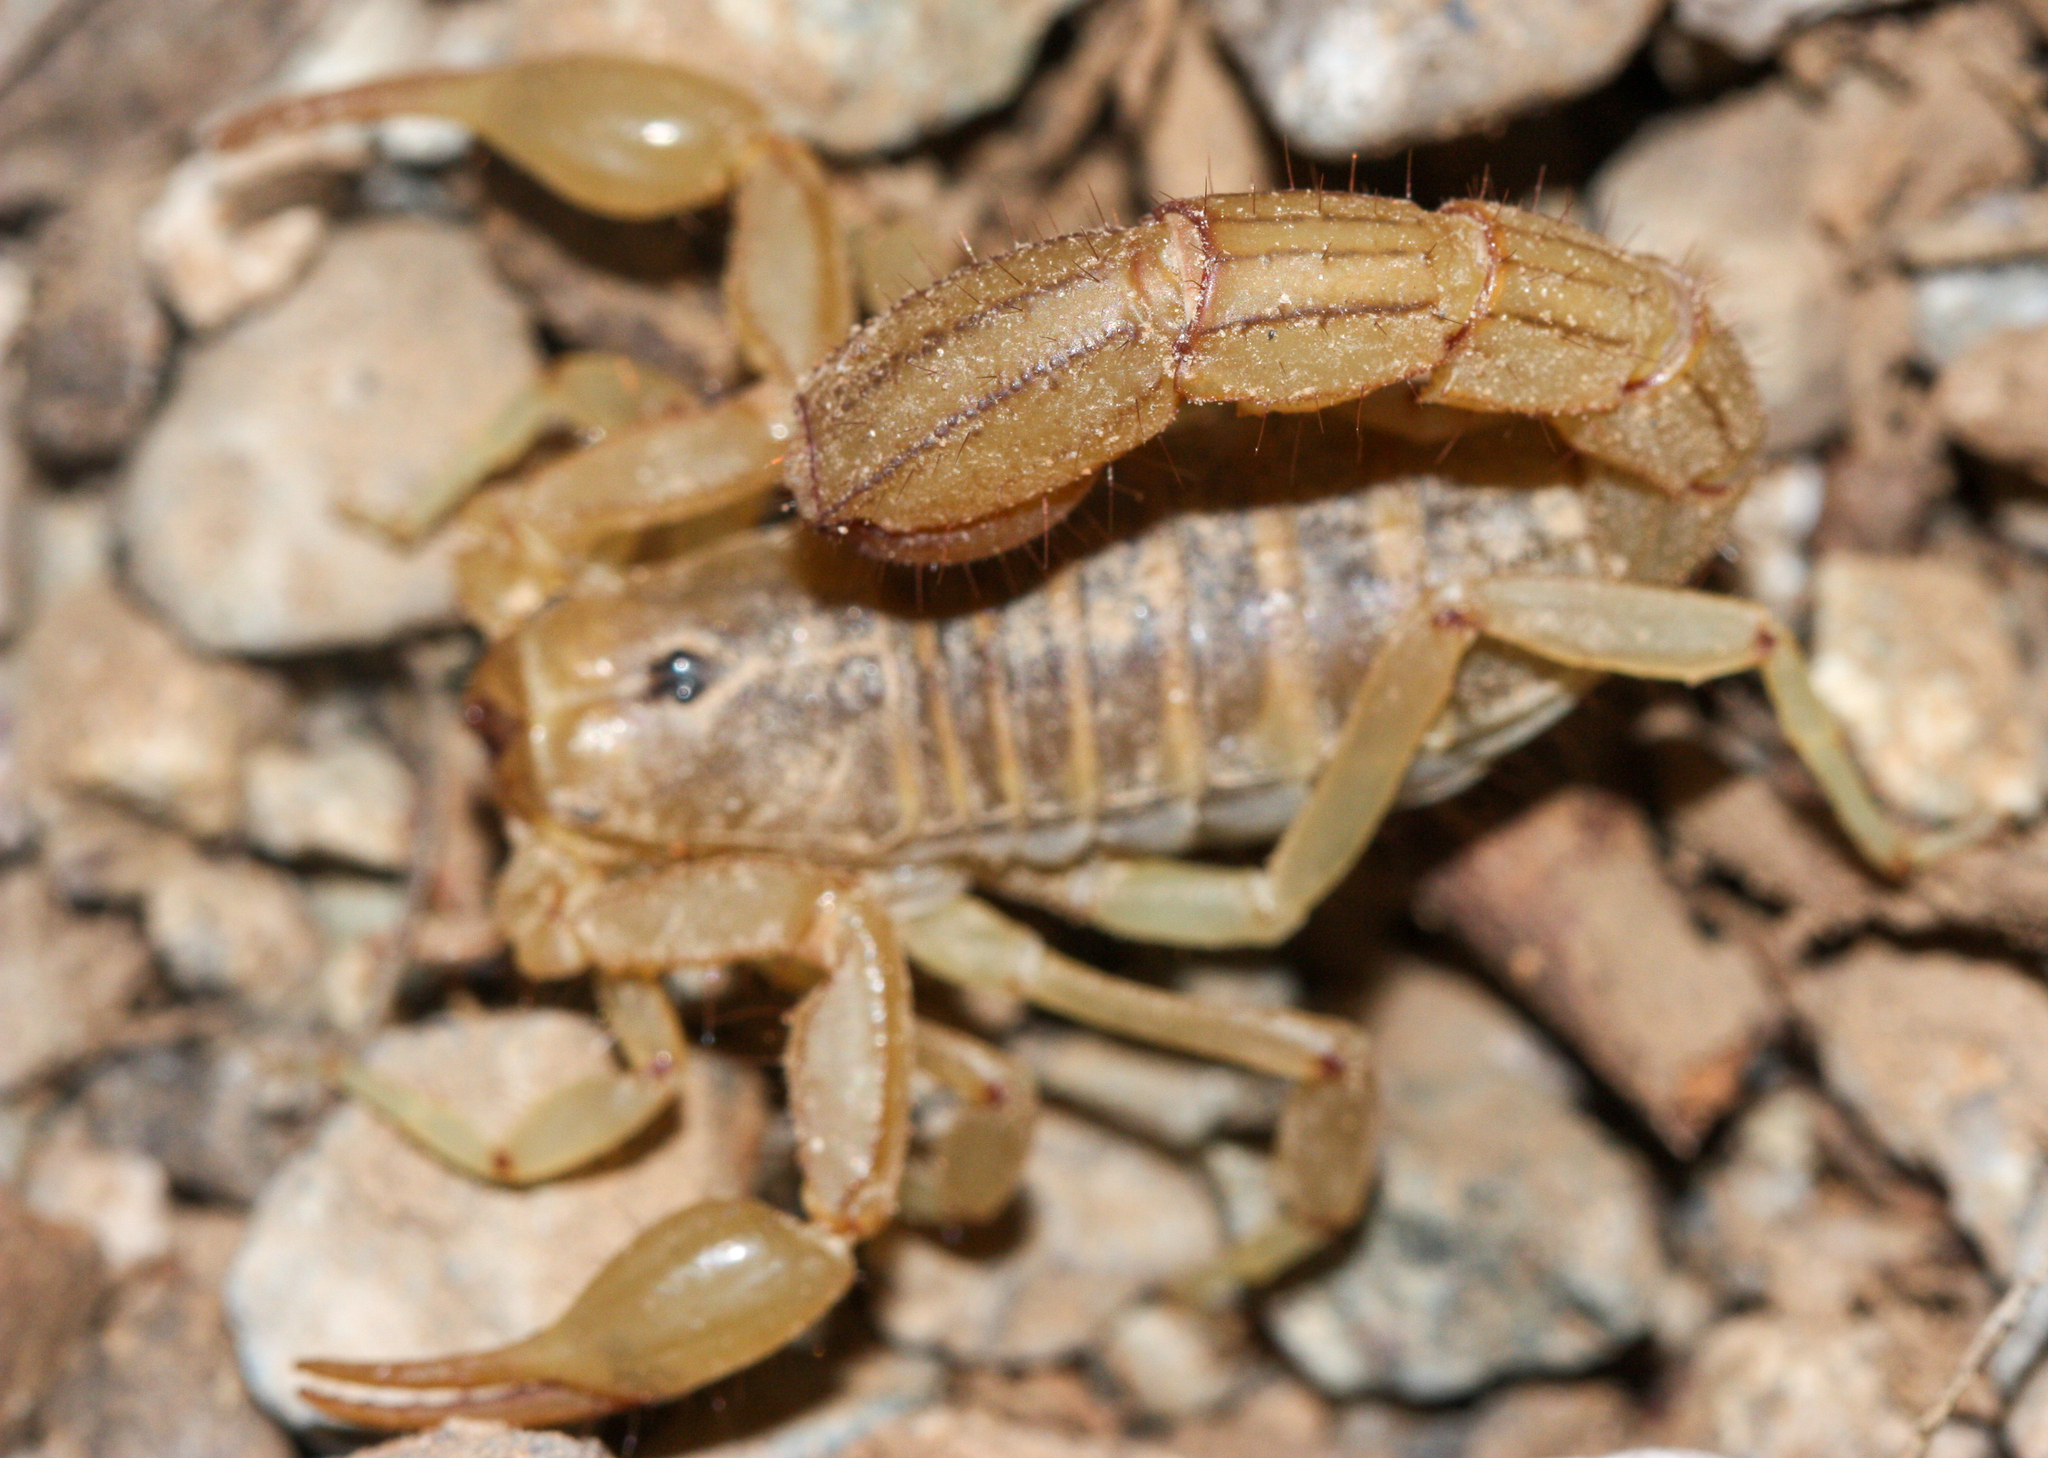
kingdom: Animalia
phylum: Arthropoda
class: Arachnida
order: Scorpiones
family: Vaejovidae
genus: Paravaejovis
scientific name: Paravaejovis spinigerus
